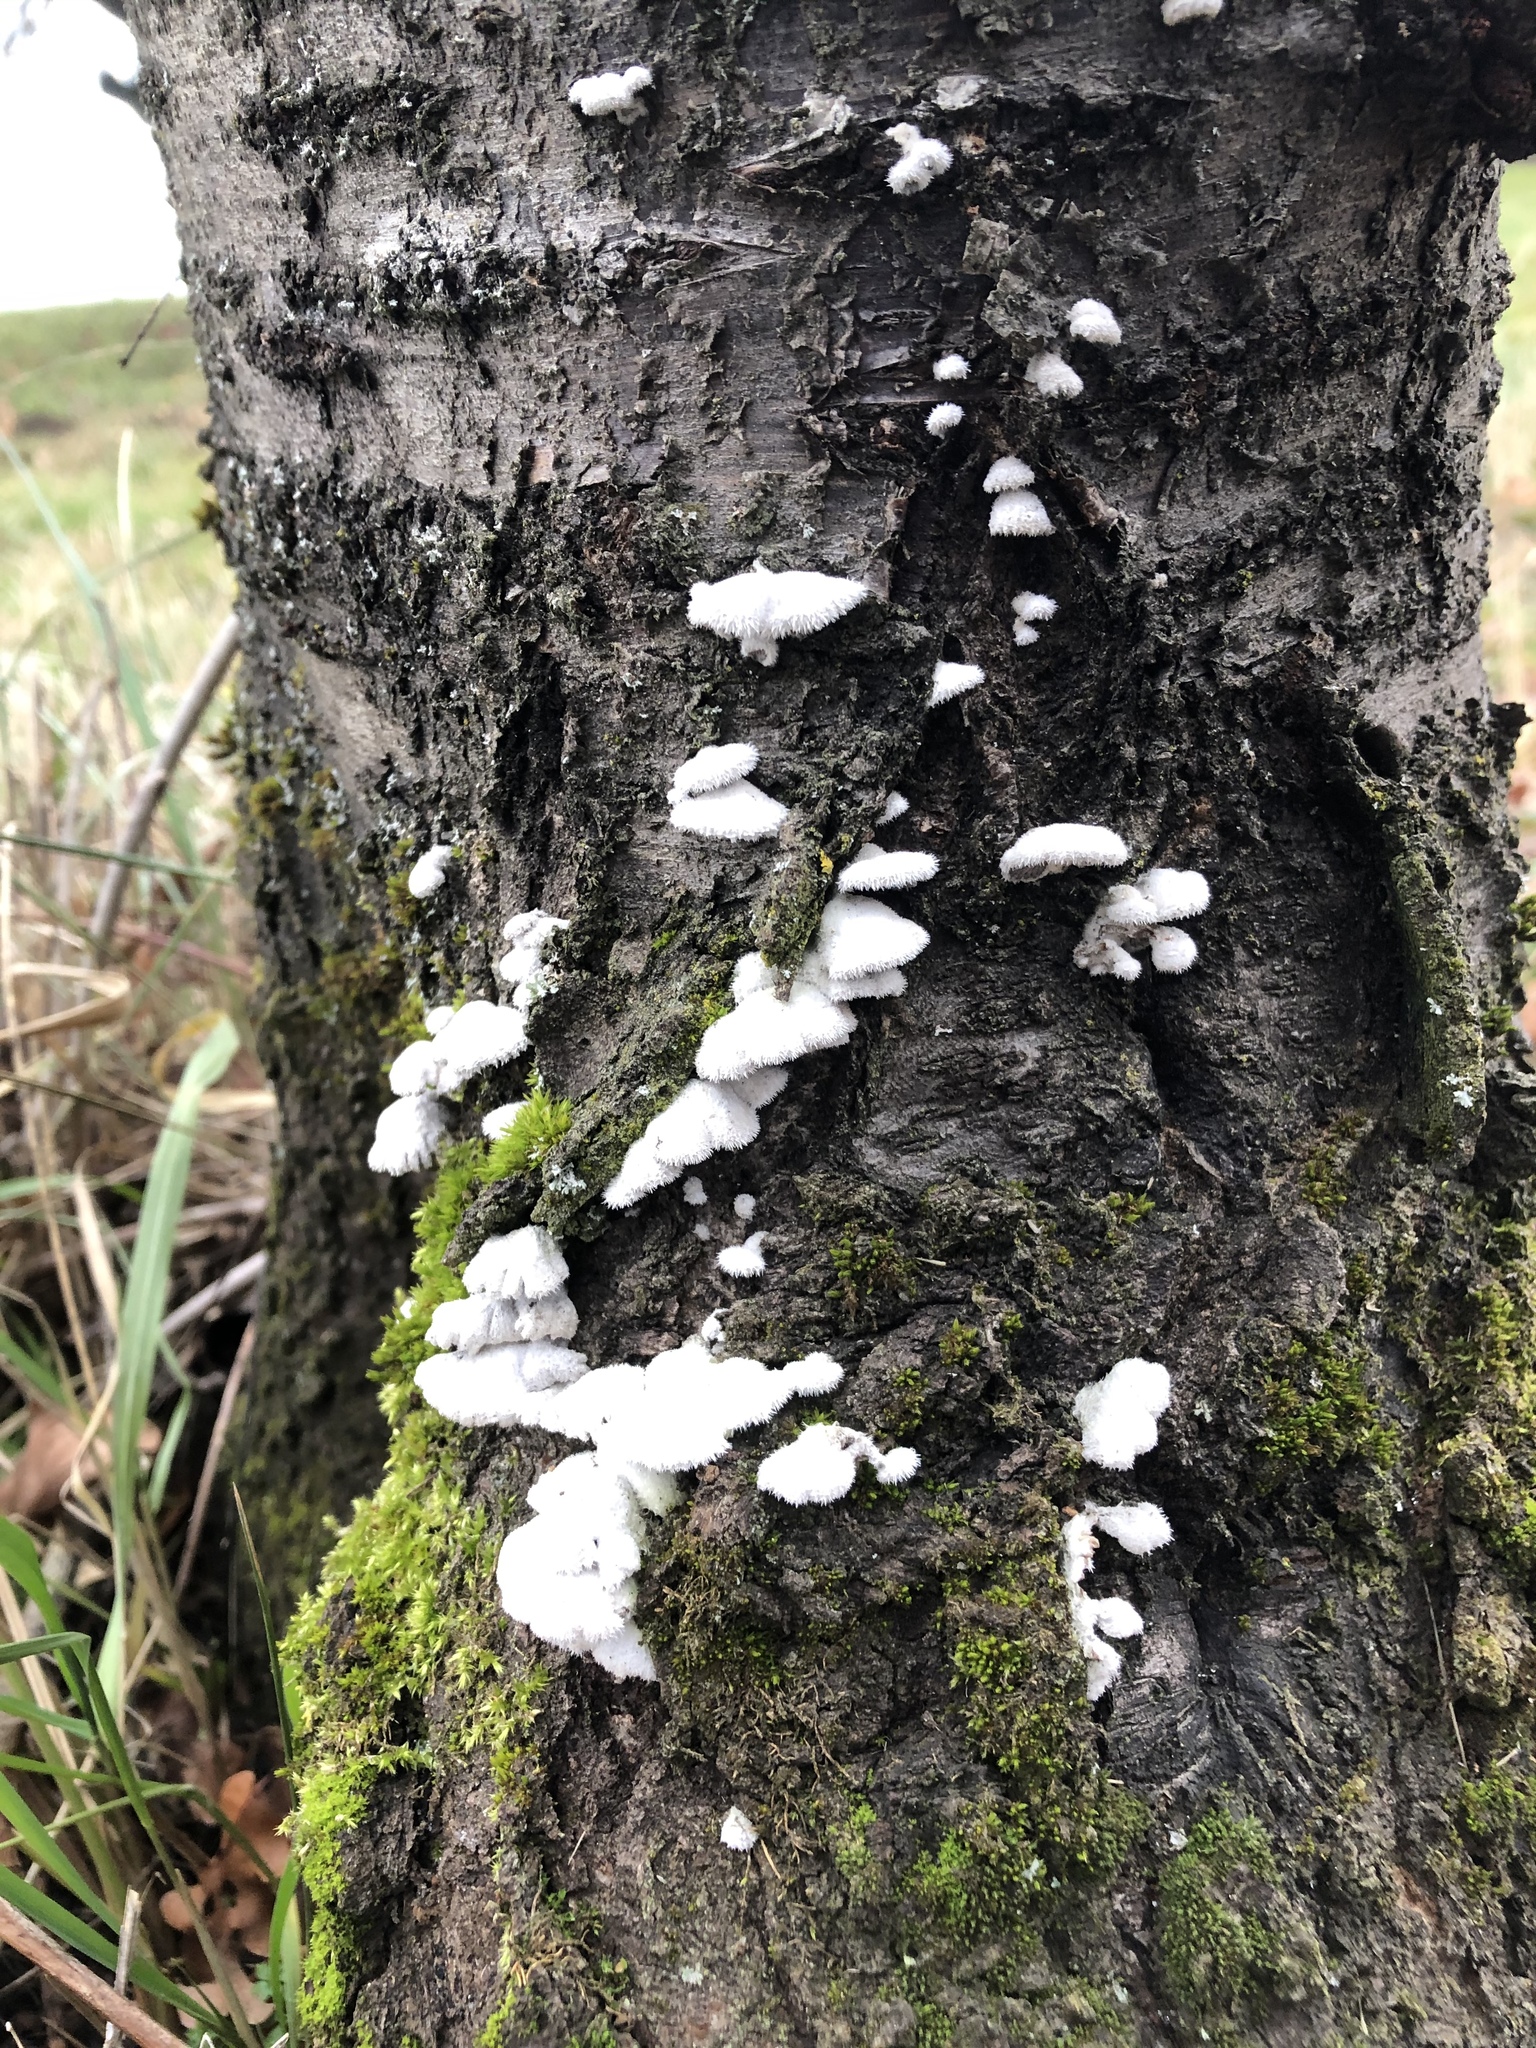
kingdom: Fungi
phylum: Basidiomycota
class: Agaricomycetes
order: Agaricales
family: Schizophyllaceae
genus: Schizophyllum
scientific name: Schizophyllum commune
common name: Common porecrust
